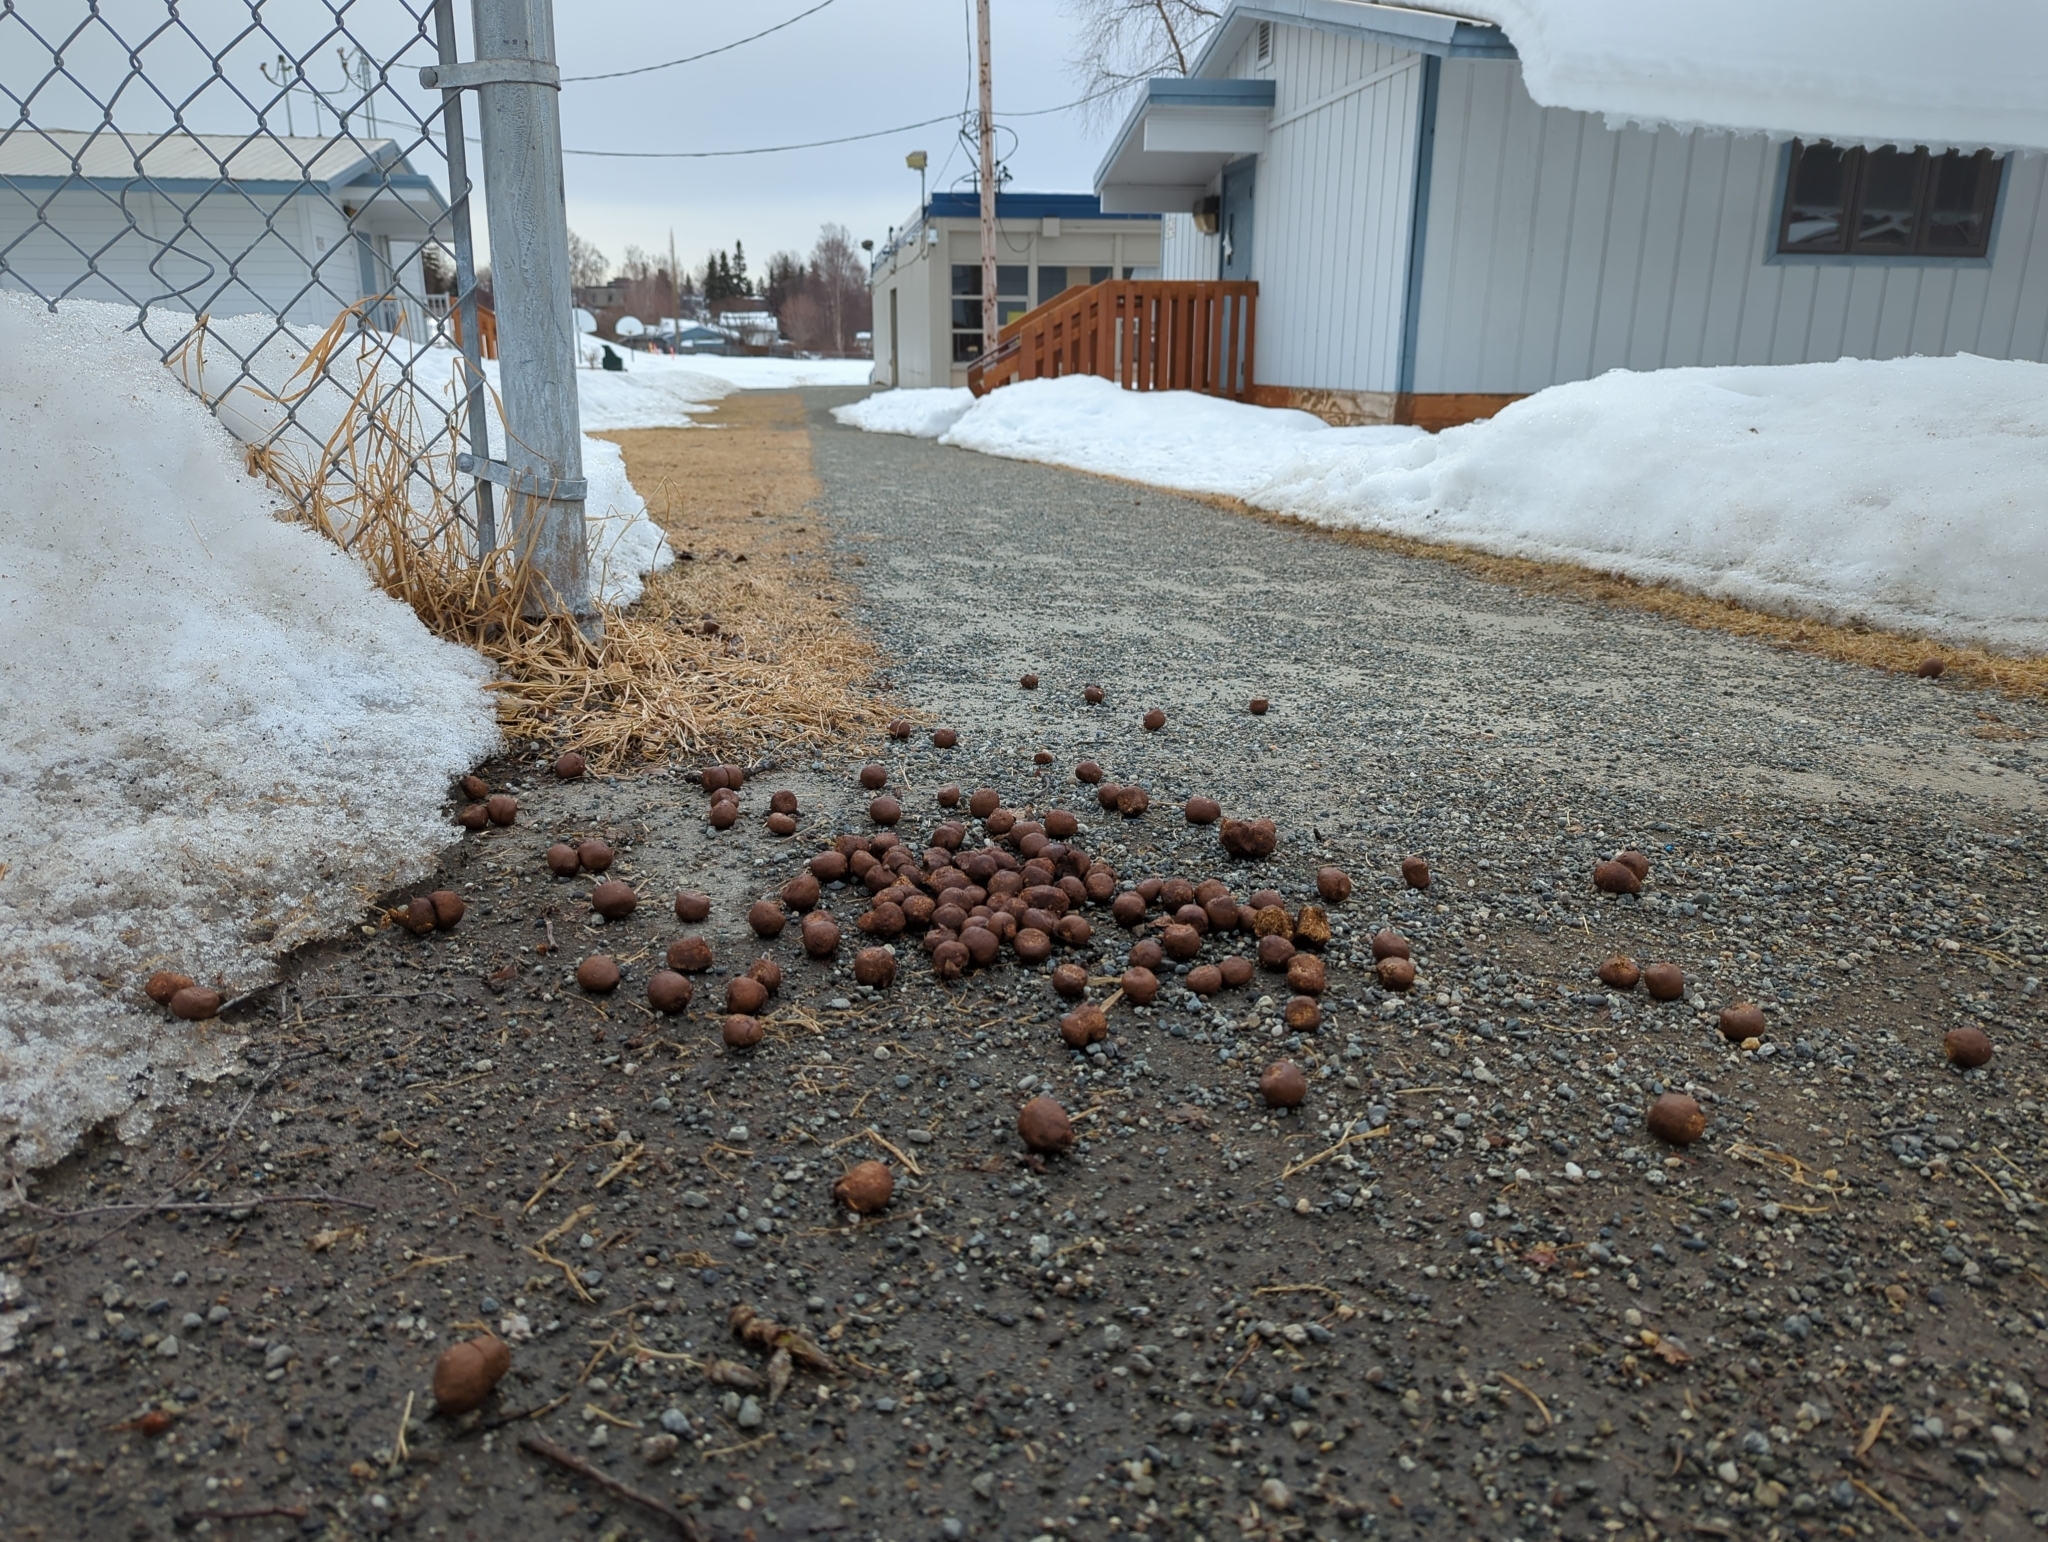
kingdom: Animalia
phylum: Chordata
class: Mammalia
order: Artiodactyla
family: Cervidae
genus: Alces
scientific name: Alces alces
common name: Moose
